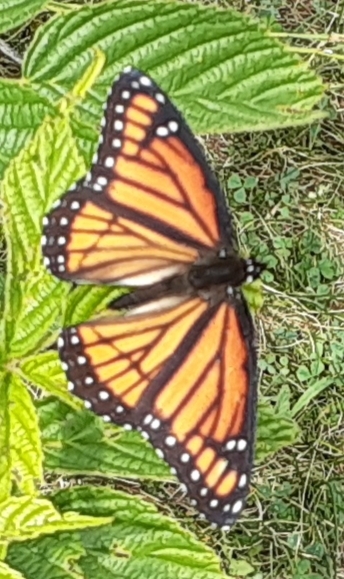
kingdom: Animalia
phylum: Arthropoda
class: Insecta
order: Lepidoptera
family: Nymphalidae
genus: Limenitis
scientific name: Limenitis archippus
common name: Viceroy
